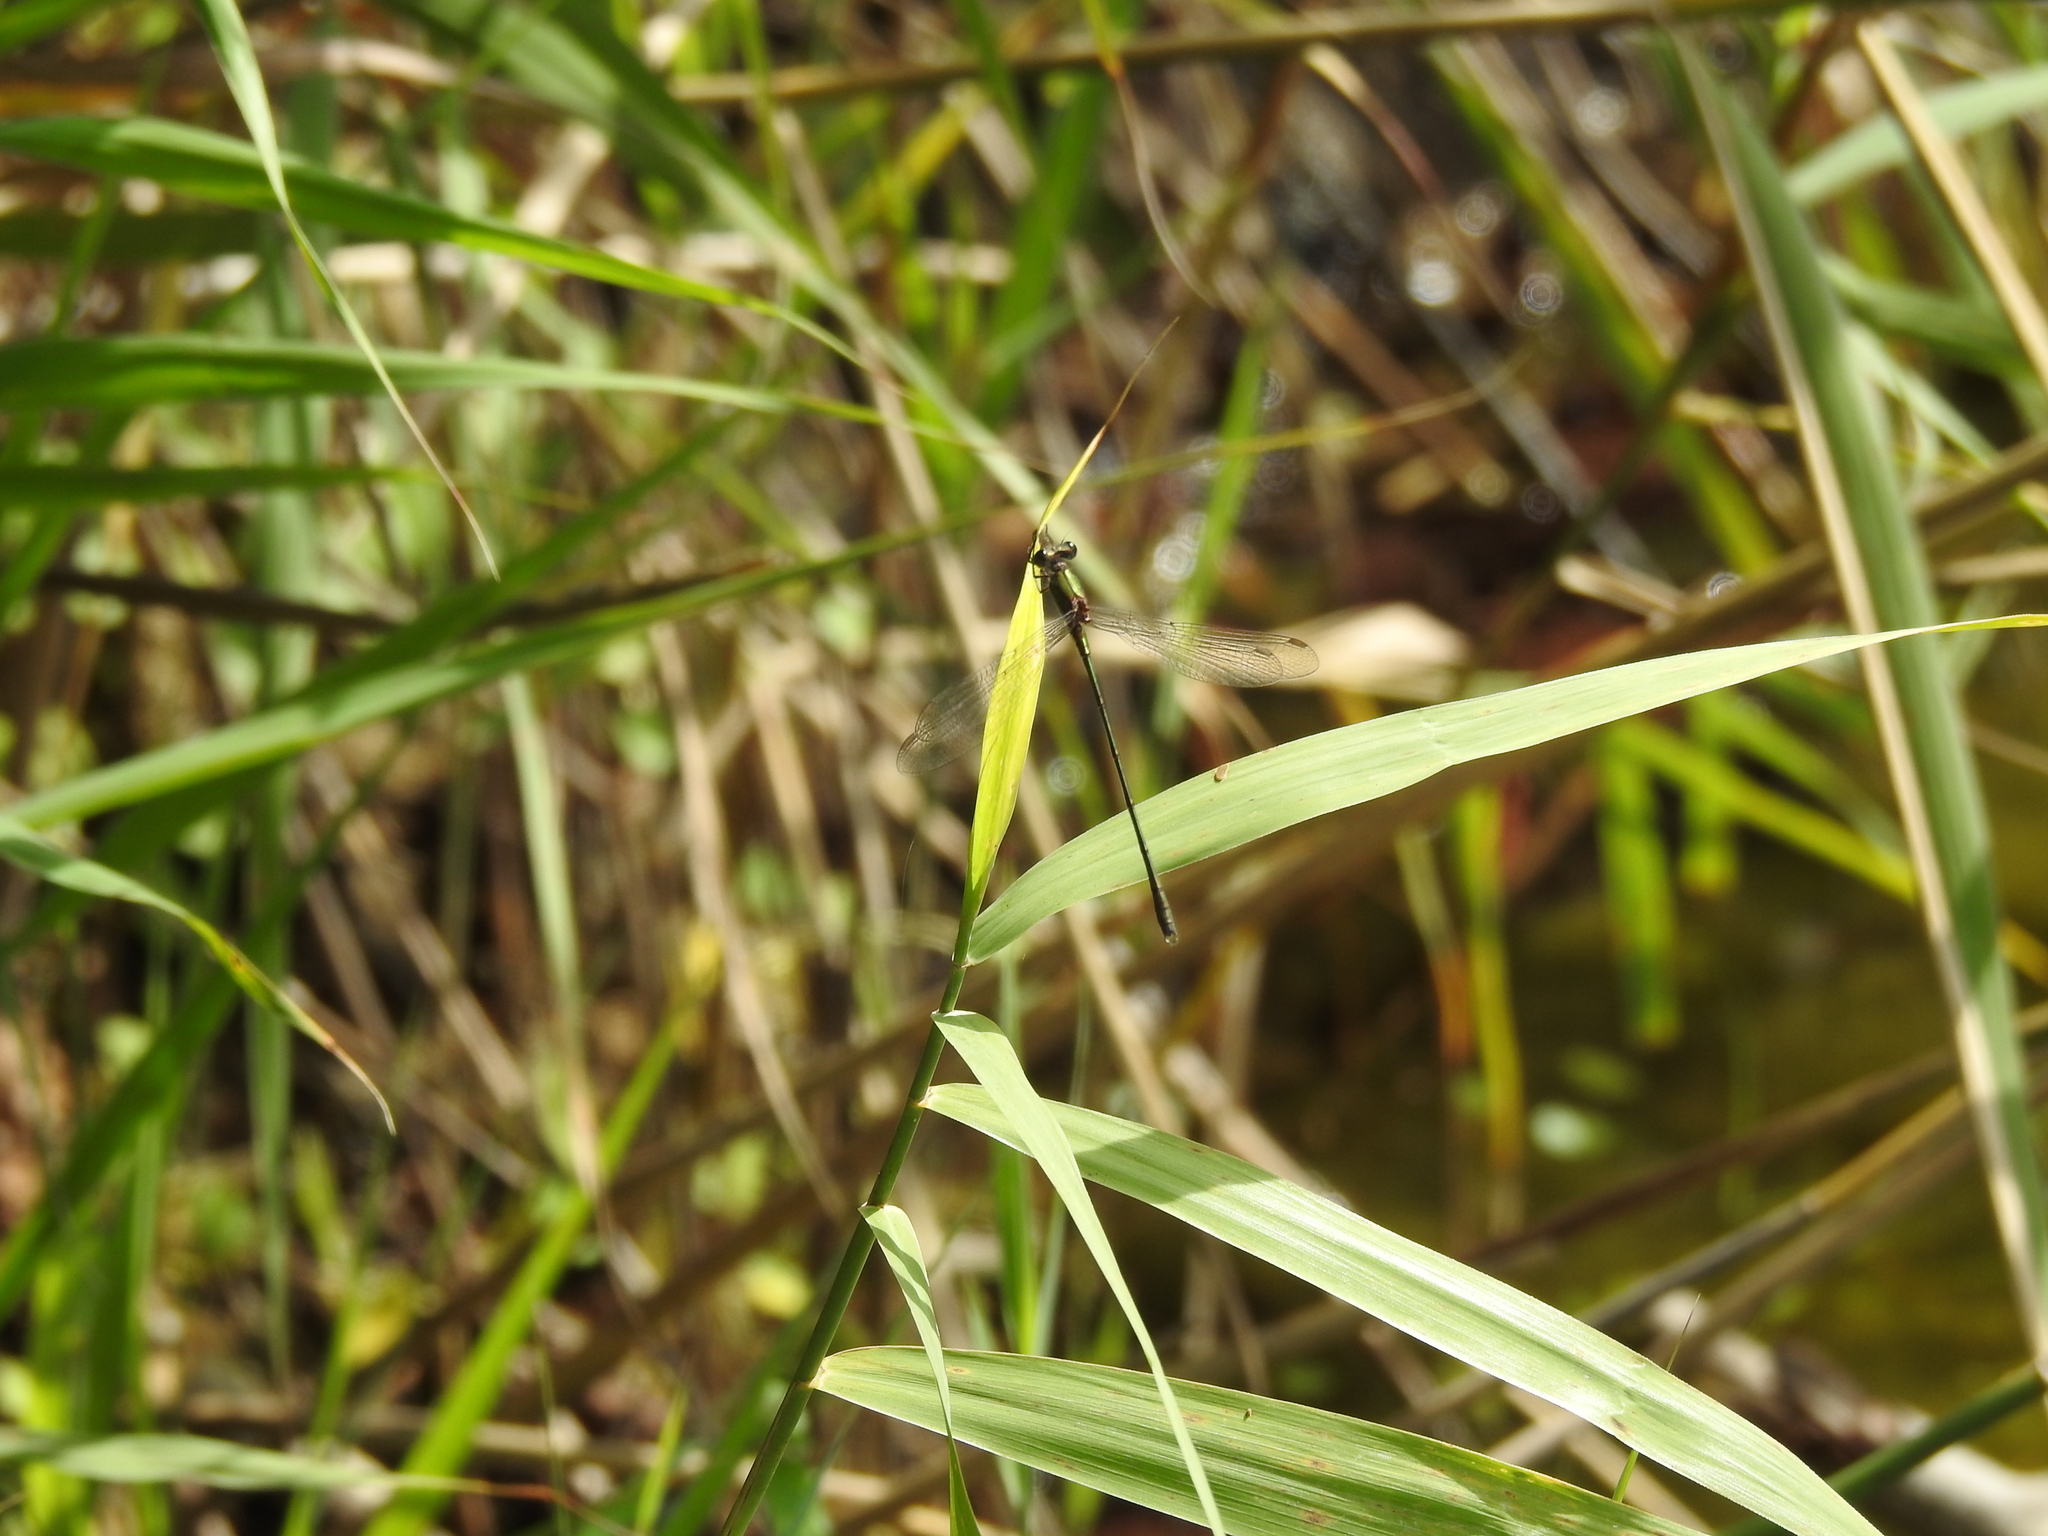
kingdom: Animalia
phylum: Arthropoda
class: Insecta
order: Odonata
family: Lestidae
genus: Chalcolestes
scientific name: Chalcolestes viridis
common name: Green emerald damselfly
